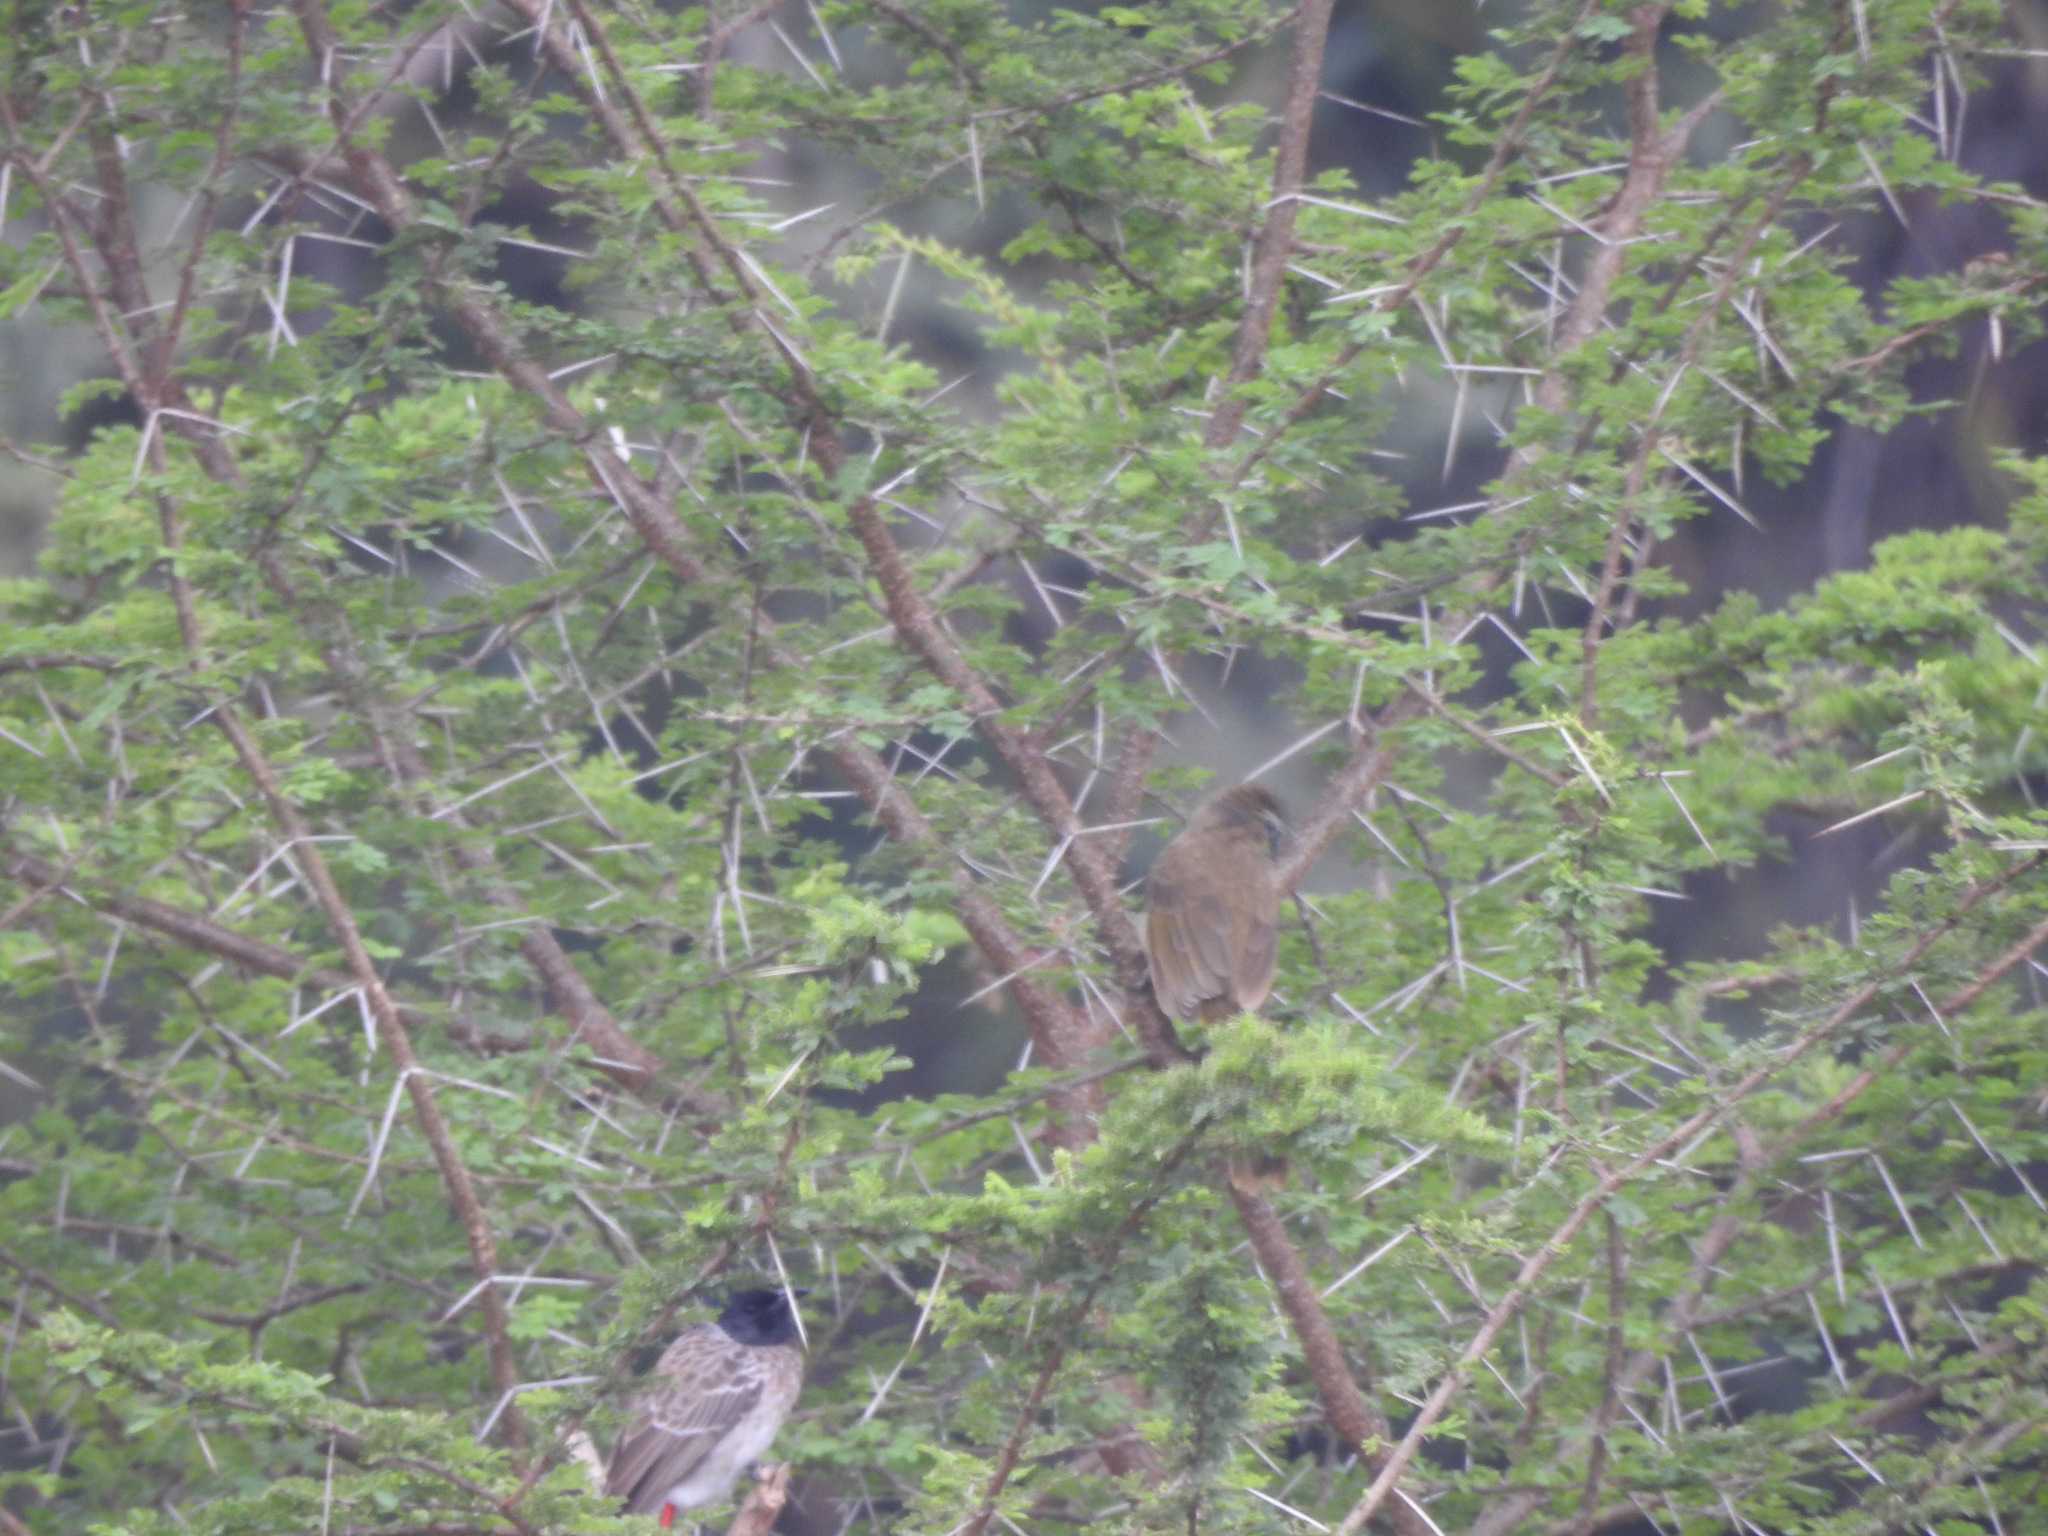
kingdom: Animalia
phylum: Chordata
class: Aves
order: Passeriformes
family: Pycnonotidae
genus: Pycnonotus
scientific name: Pycnonotus luteolus
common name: White-browed bulbul
